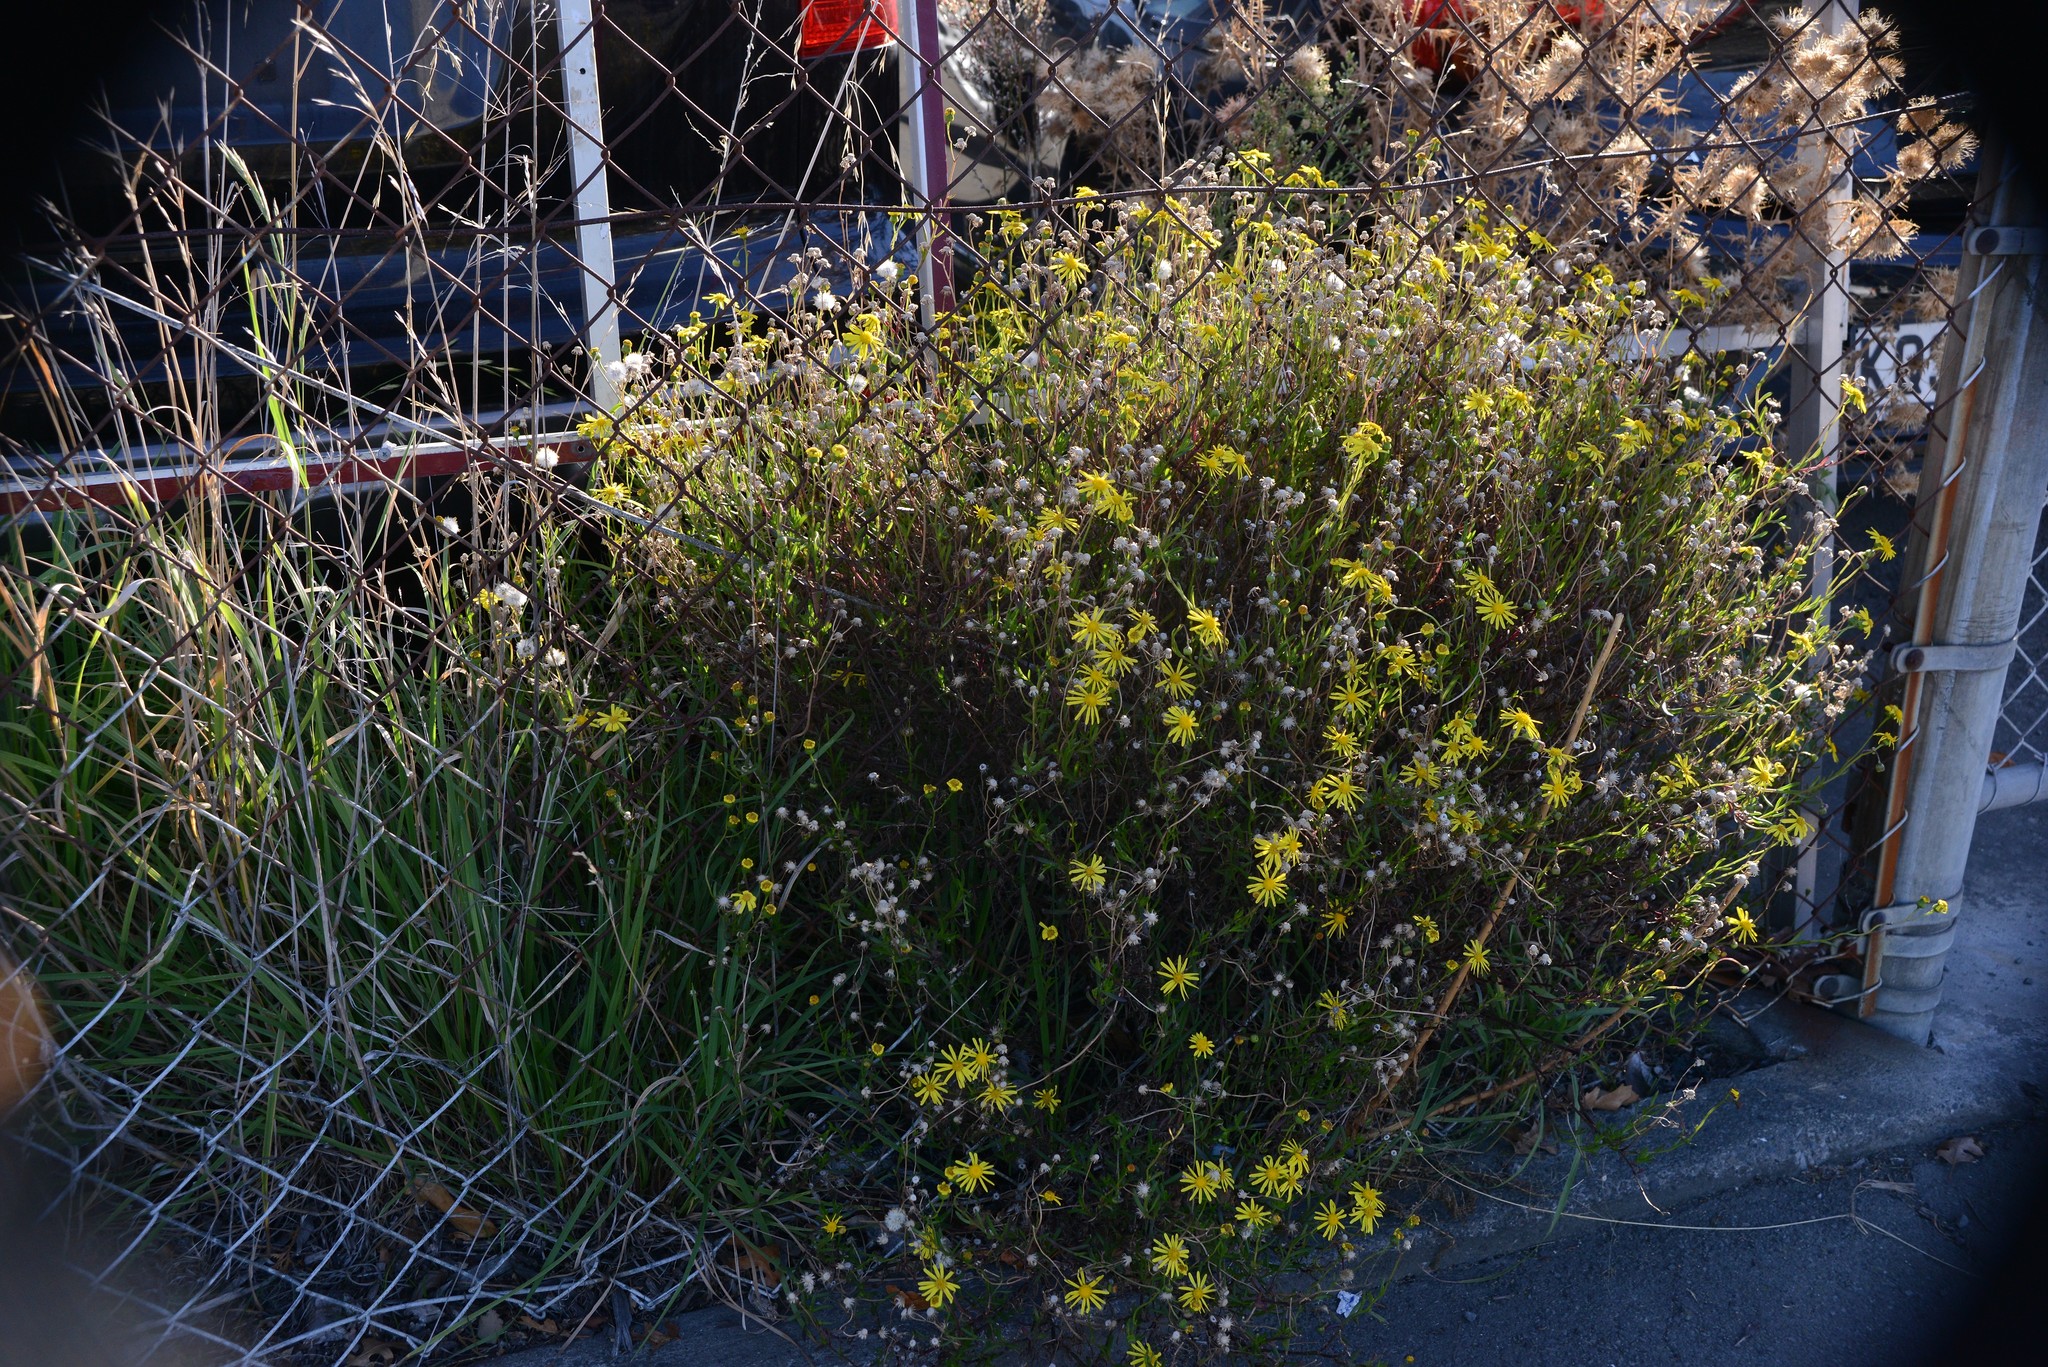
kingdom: Plantae
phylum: Tracheophyta
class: Magnoliopsida
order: Asterales
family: Asteraceae
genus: Senecio
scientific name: Senecio skirrhodon
